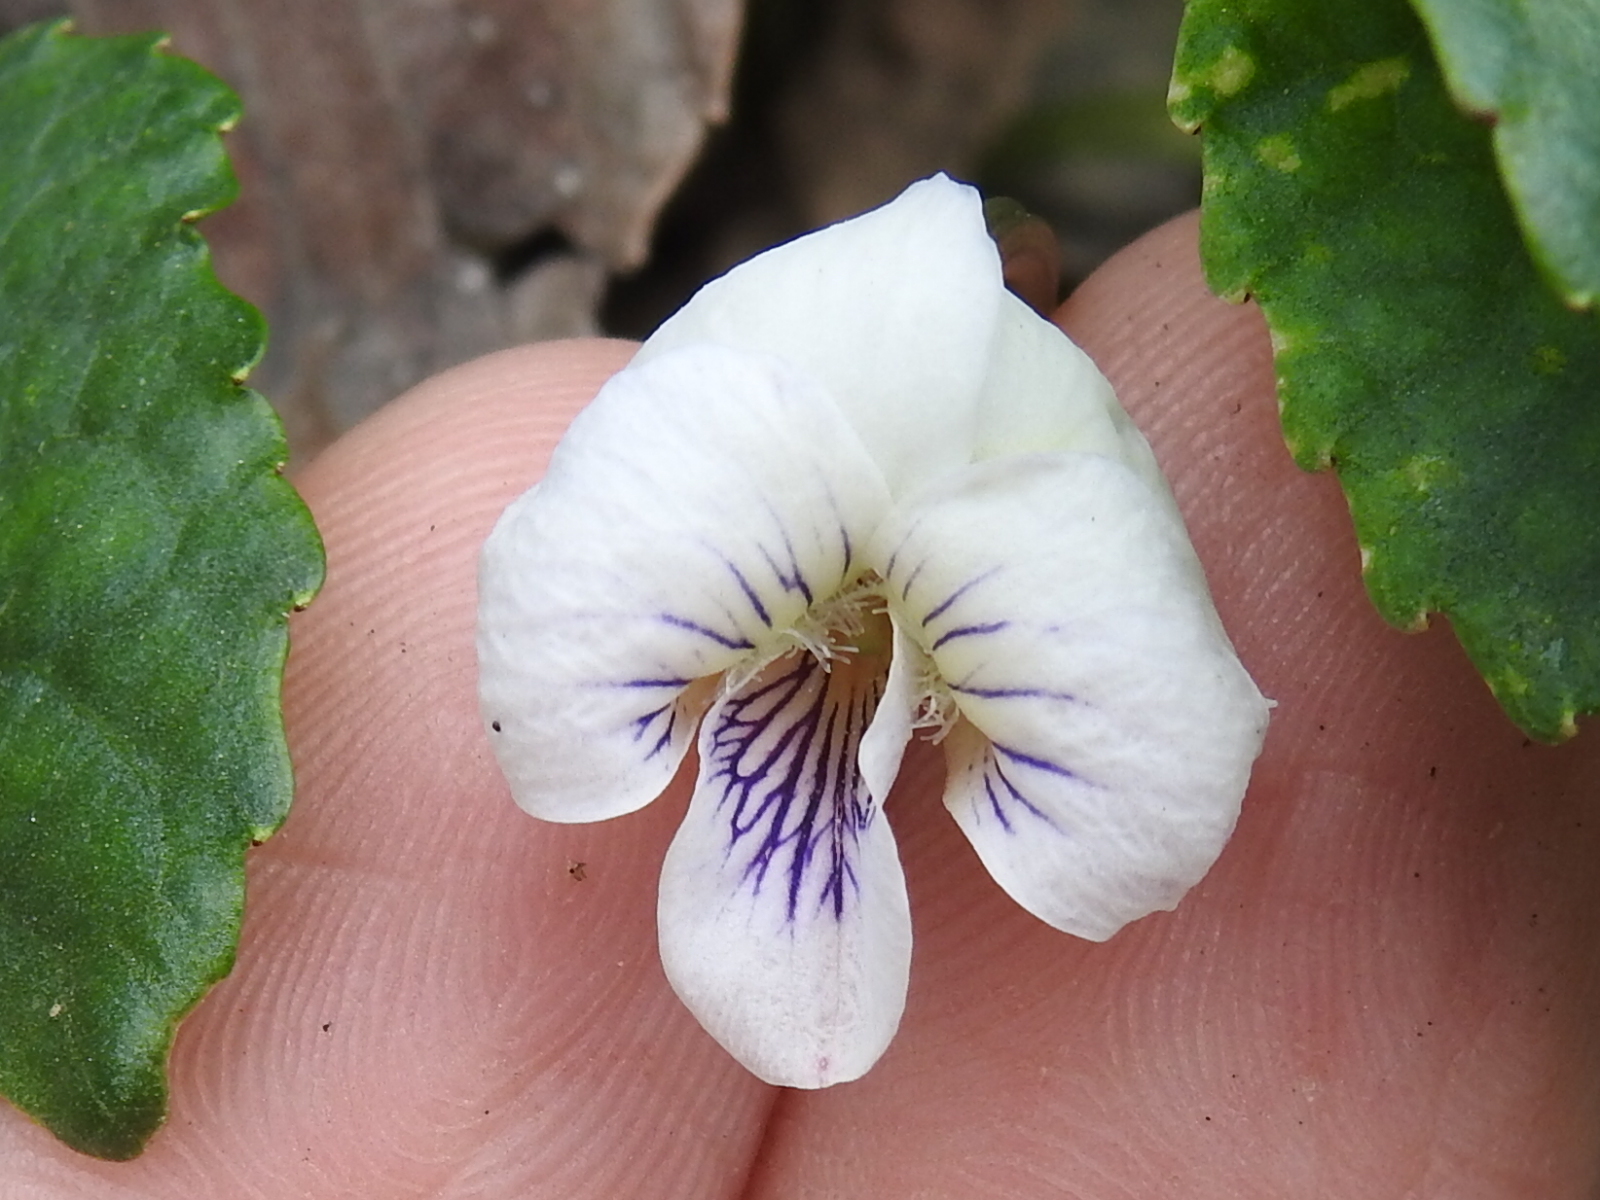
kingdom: Plantae
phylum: Tracheophyta
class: Magnoliopsida
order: Malpighiales
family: Violaceae
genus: Viola
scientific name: Viola missouriensis
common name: Missouri violet
